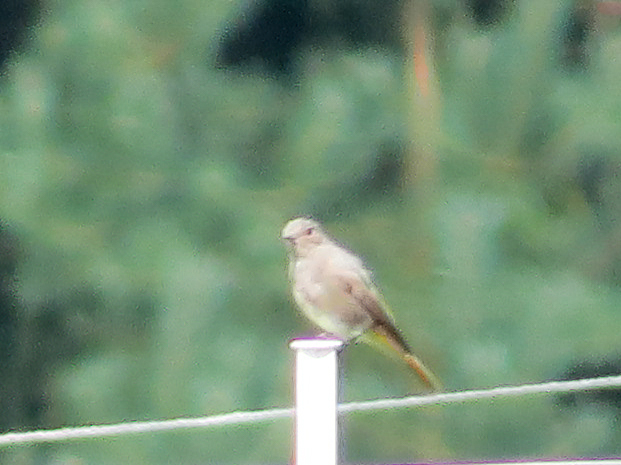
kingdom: Animalia
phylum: Chordata
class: Aves
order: Passeriformes
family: Muscicapidae
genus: Phoenicurus
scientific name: Phoenicurus ochruros
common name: Black redstart
